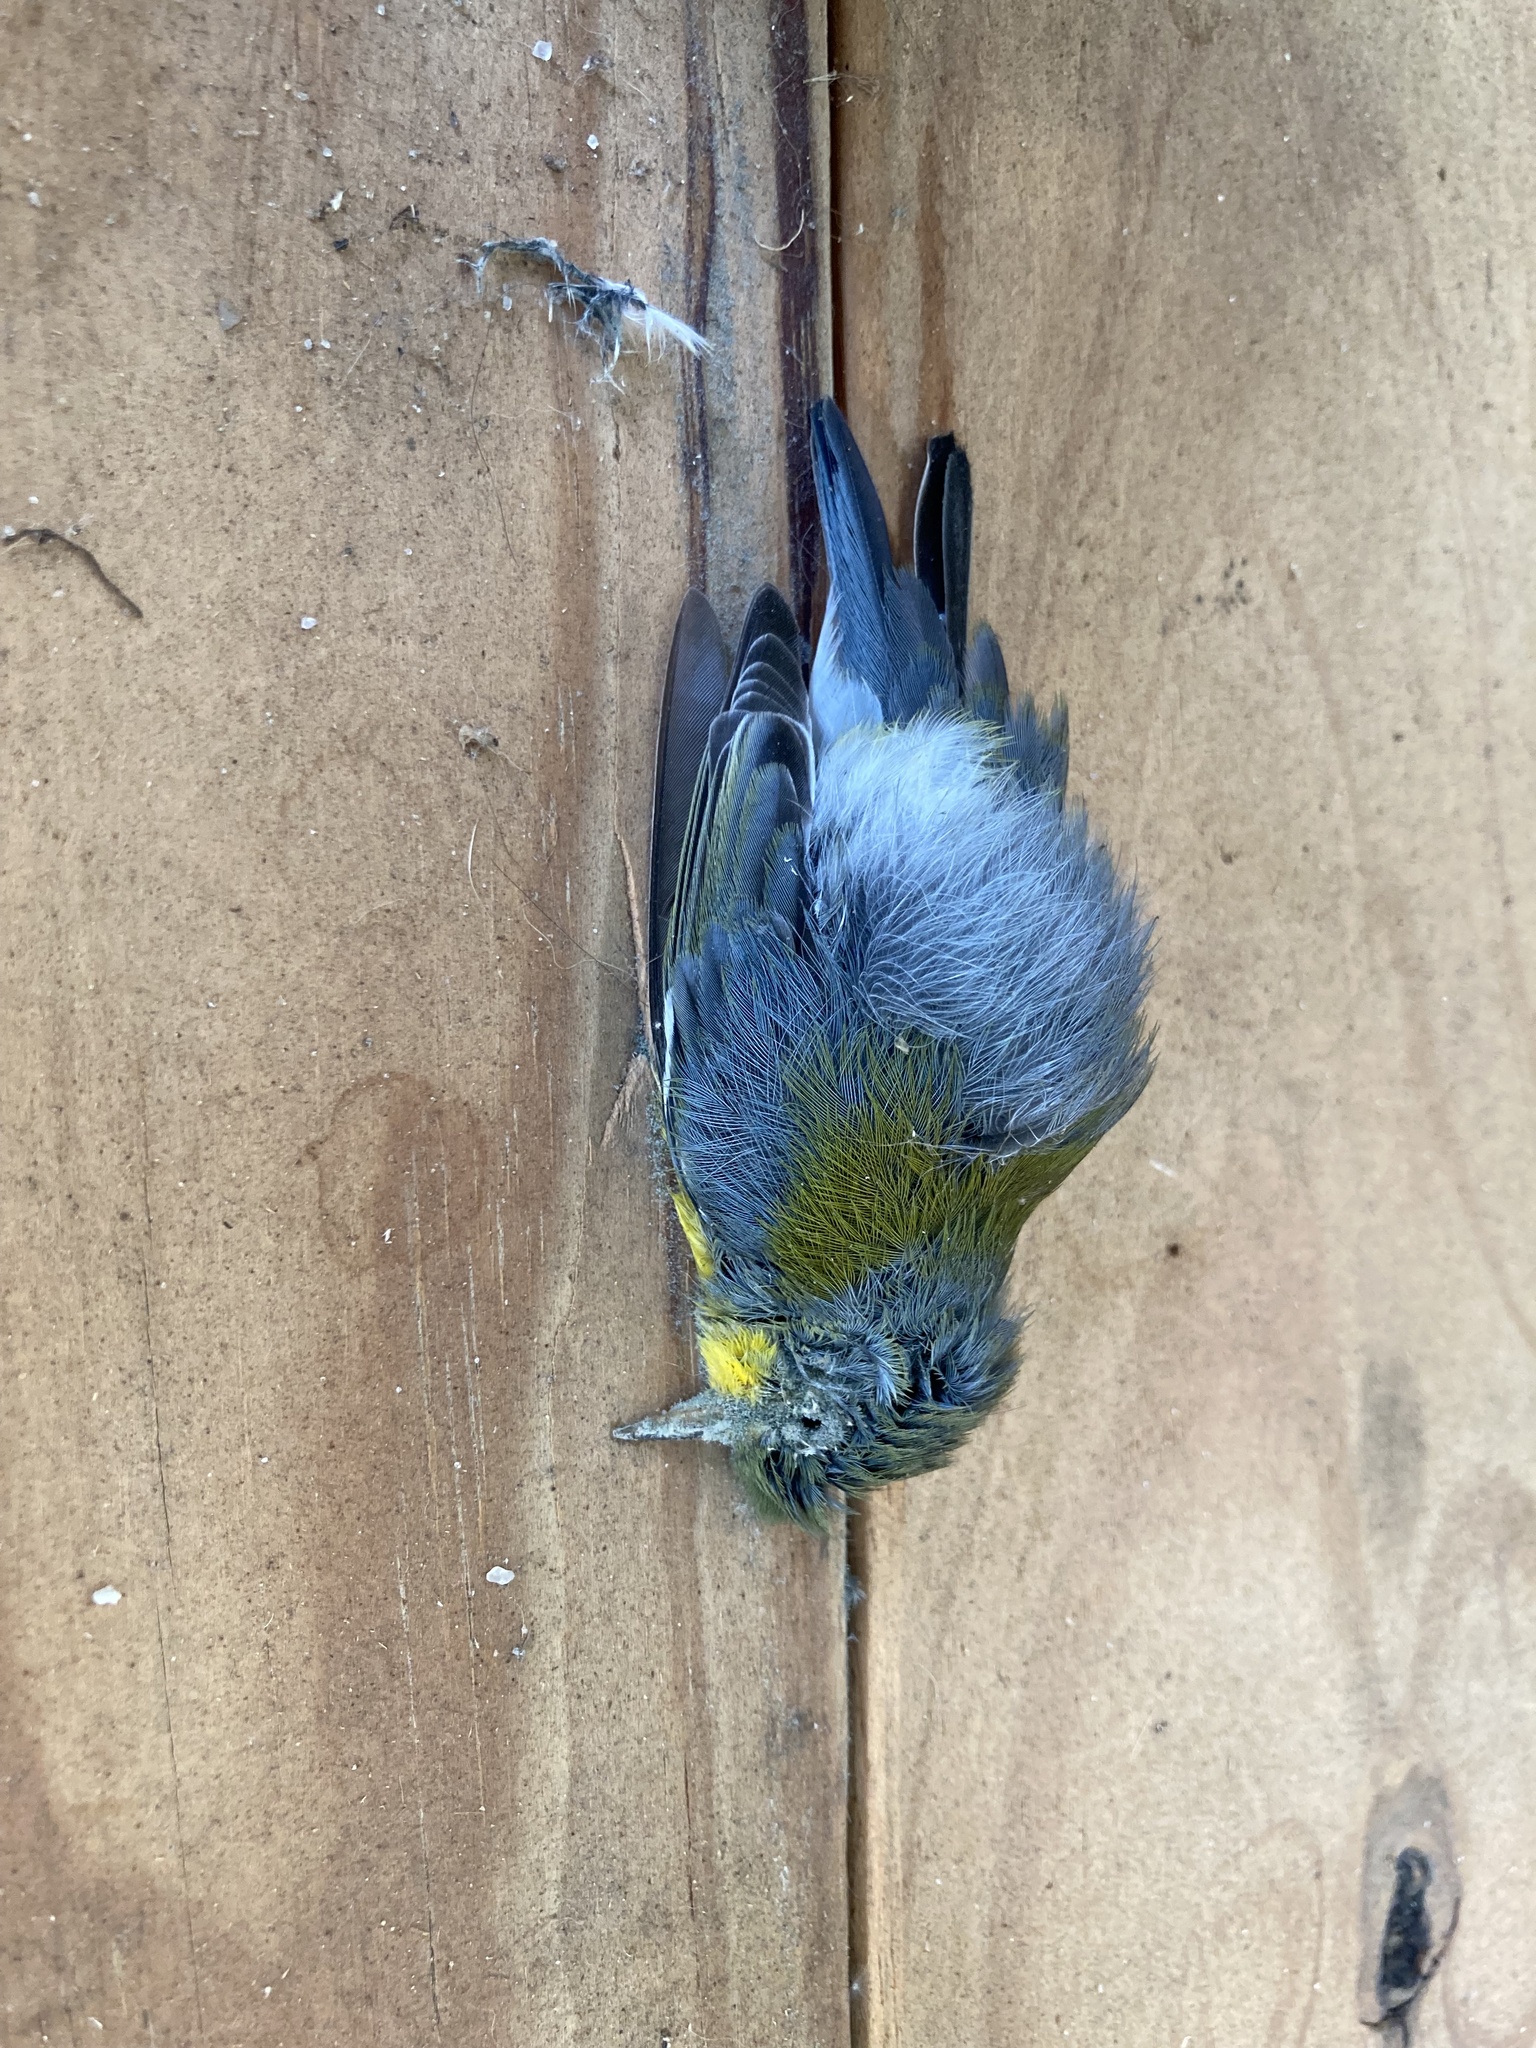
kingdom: Animalia
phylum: Chordata
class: Aves
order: Passeriformes
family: Parulidae
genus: Setophaga
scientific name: Setophaga americana
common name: Northern parula
